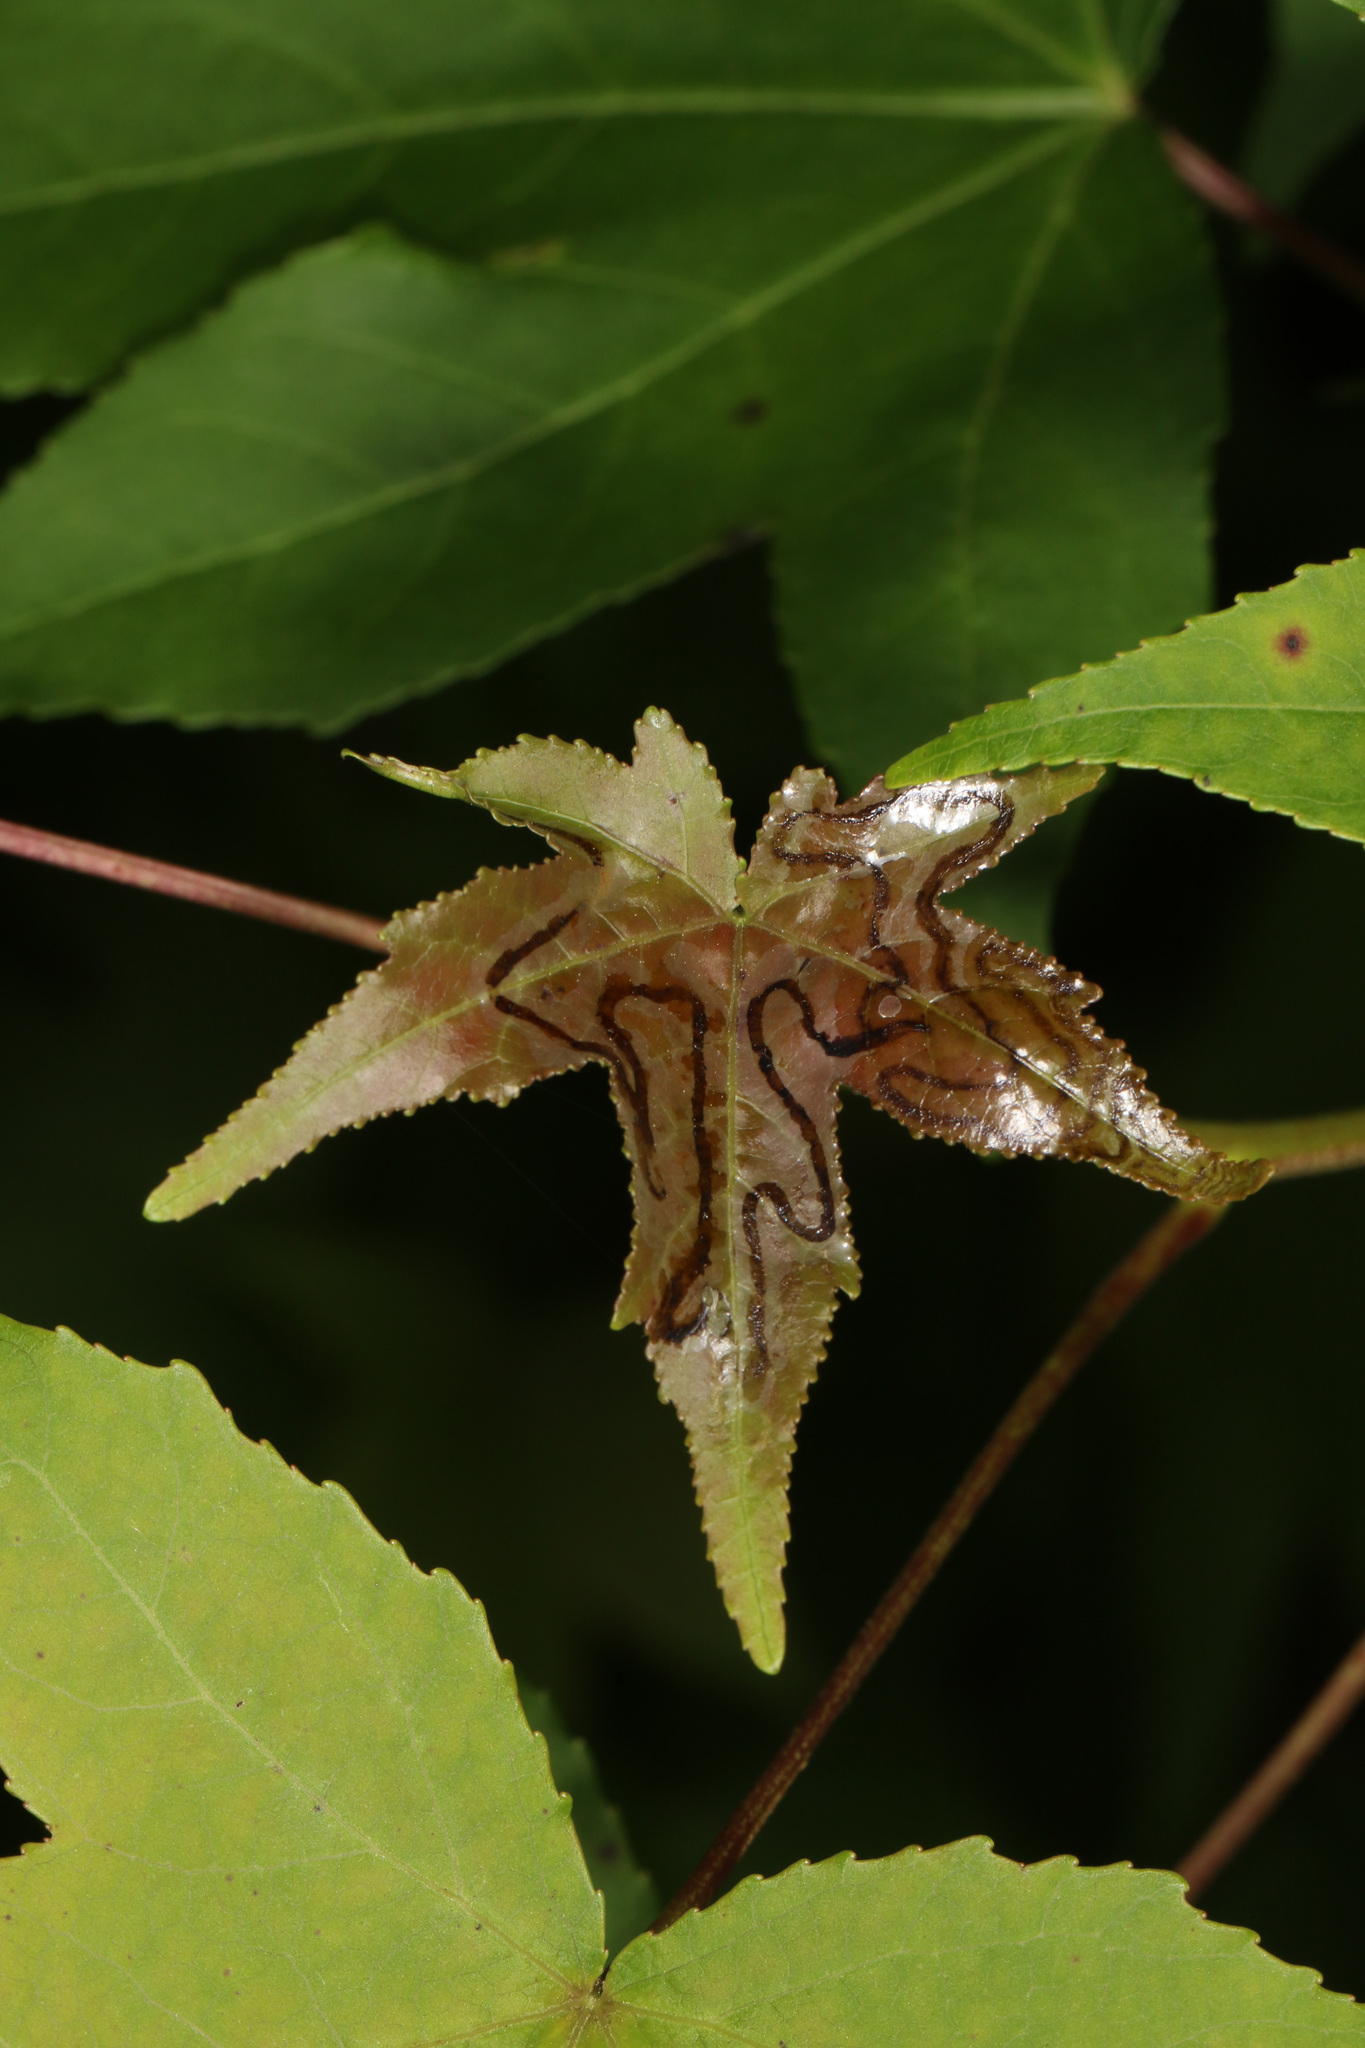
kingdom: Animalia
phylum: Arthropoda
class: Insecta
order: Lepidoptera
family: Gracillariidae
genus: Phyllocnistis
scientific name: Phyllocnistis liquidambarisella
